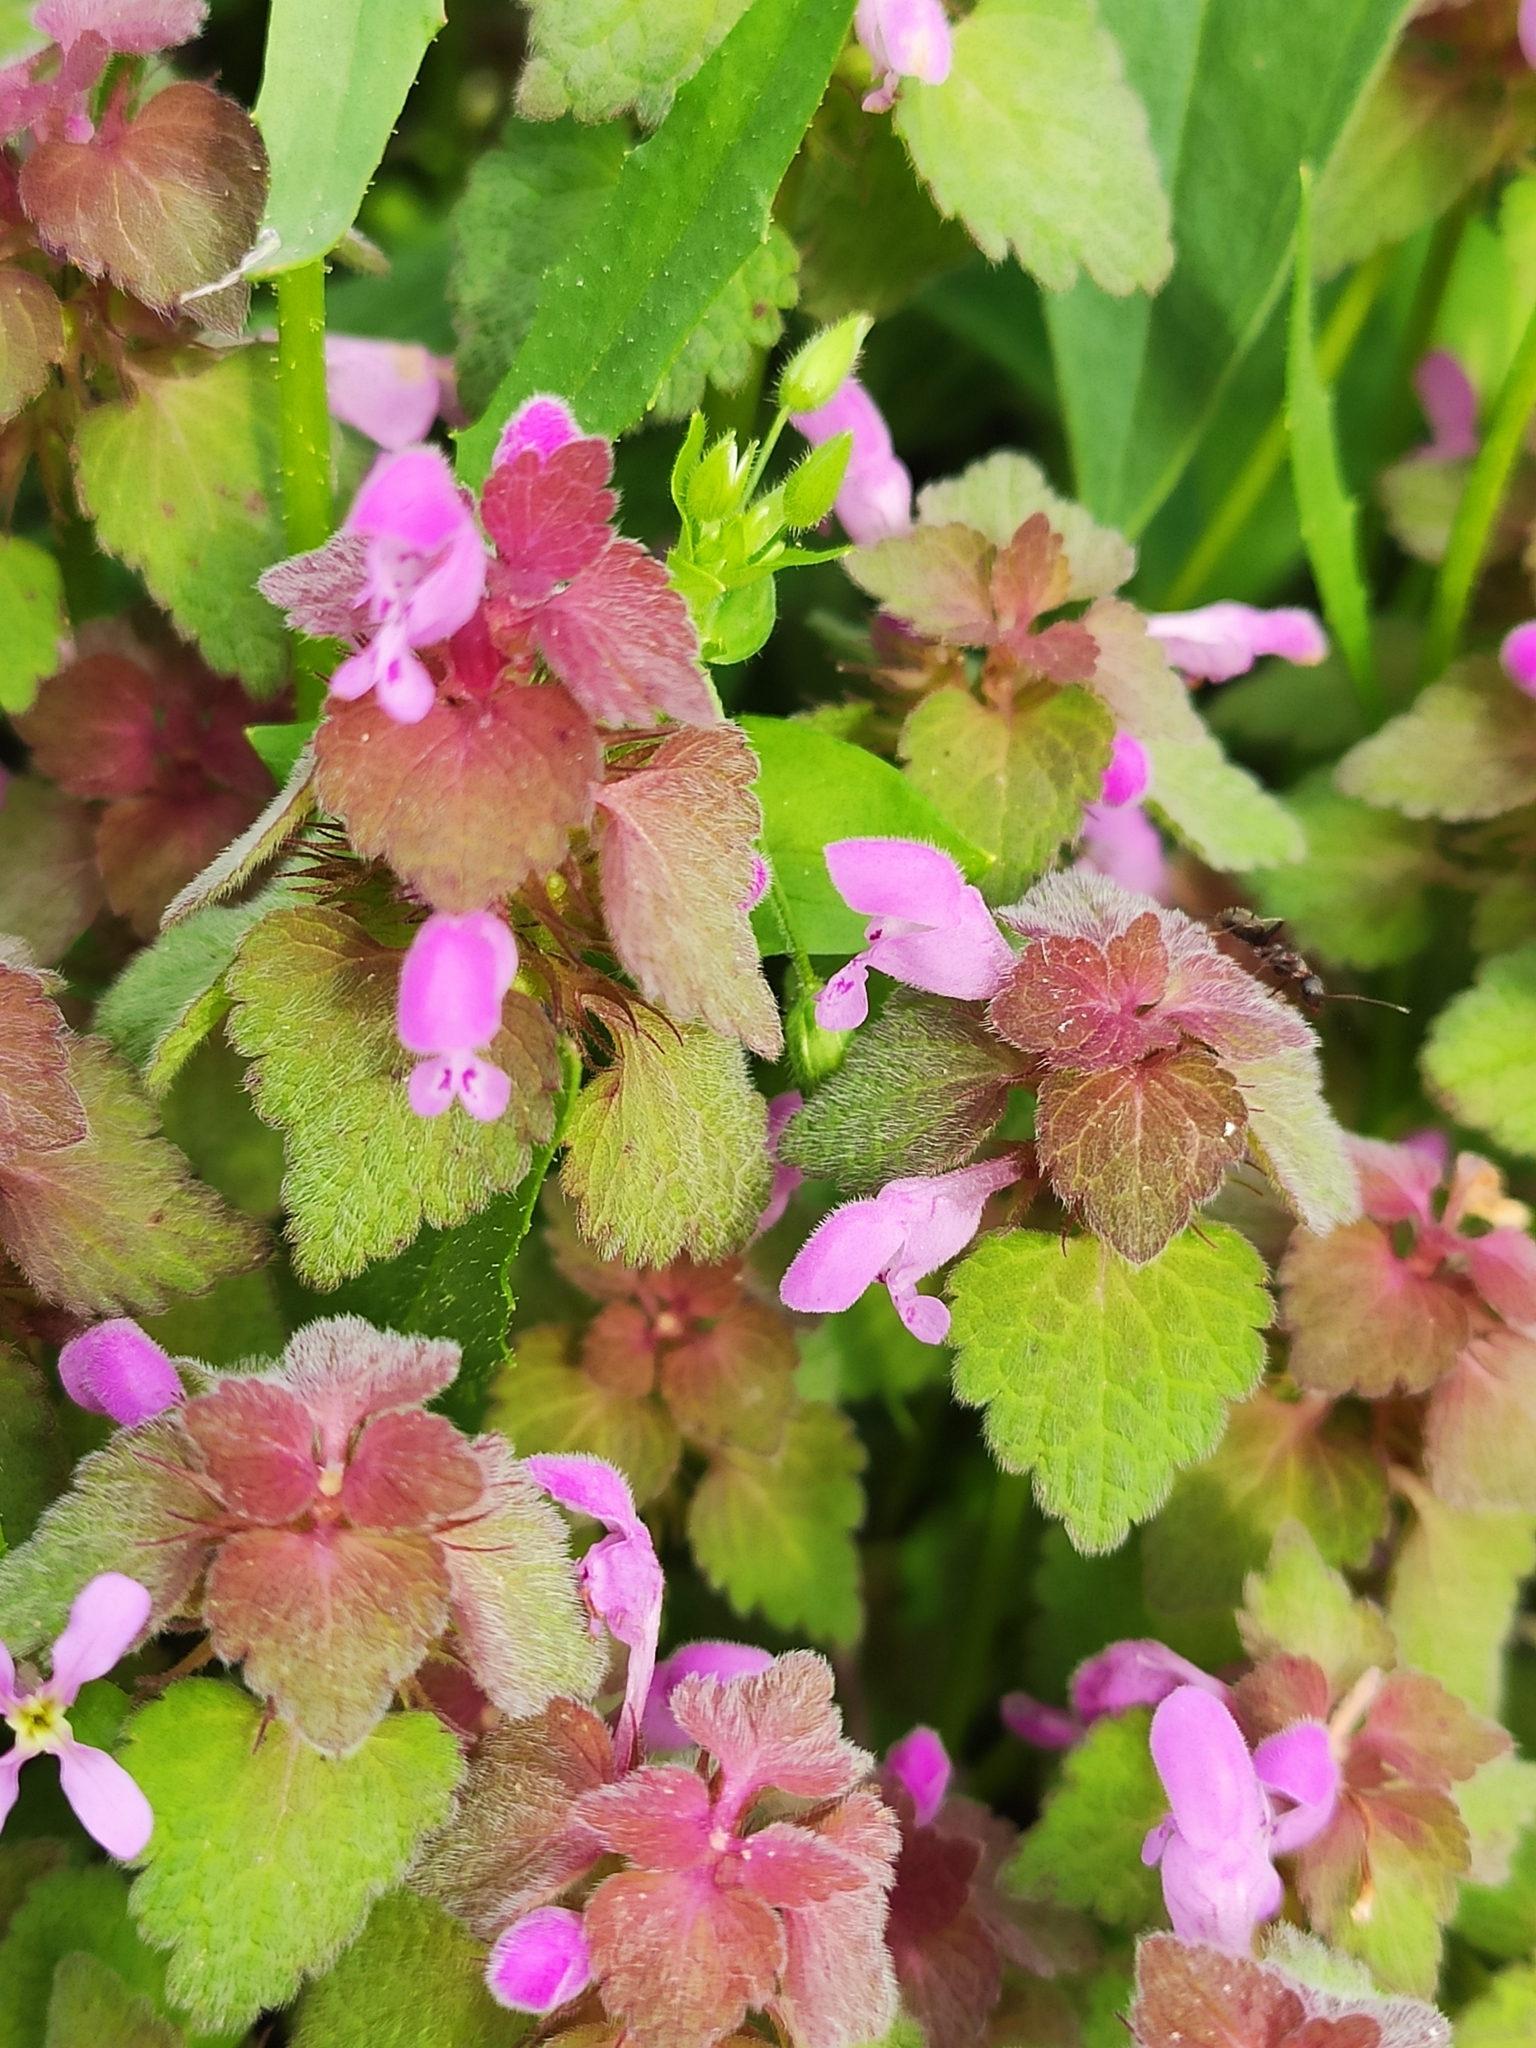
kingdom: Plantae
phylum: Tracheophyta
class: Magnoliopsida
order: Lamiales
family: Lamiaceae
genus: Lamium
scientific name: Lamium purpureum
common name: Red dead-nettle
